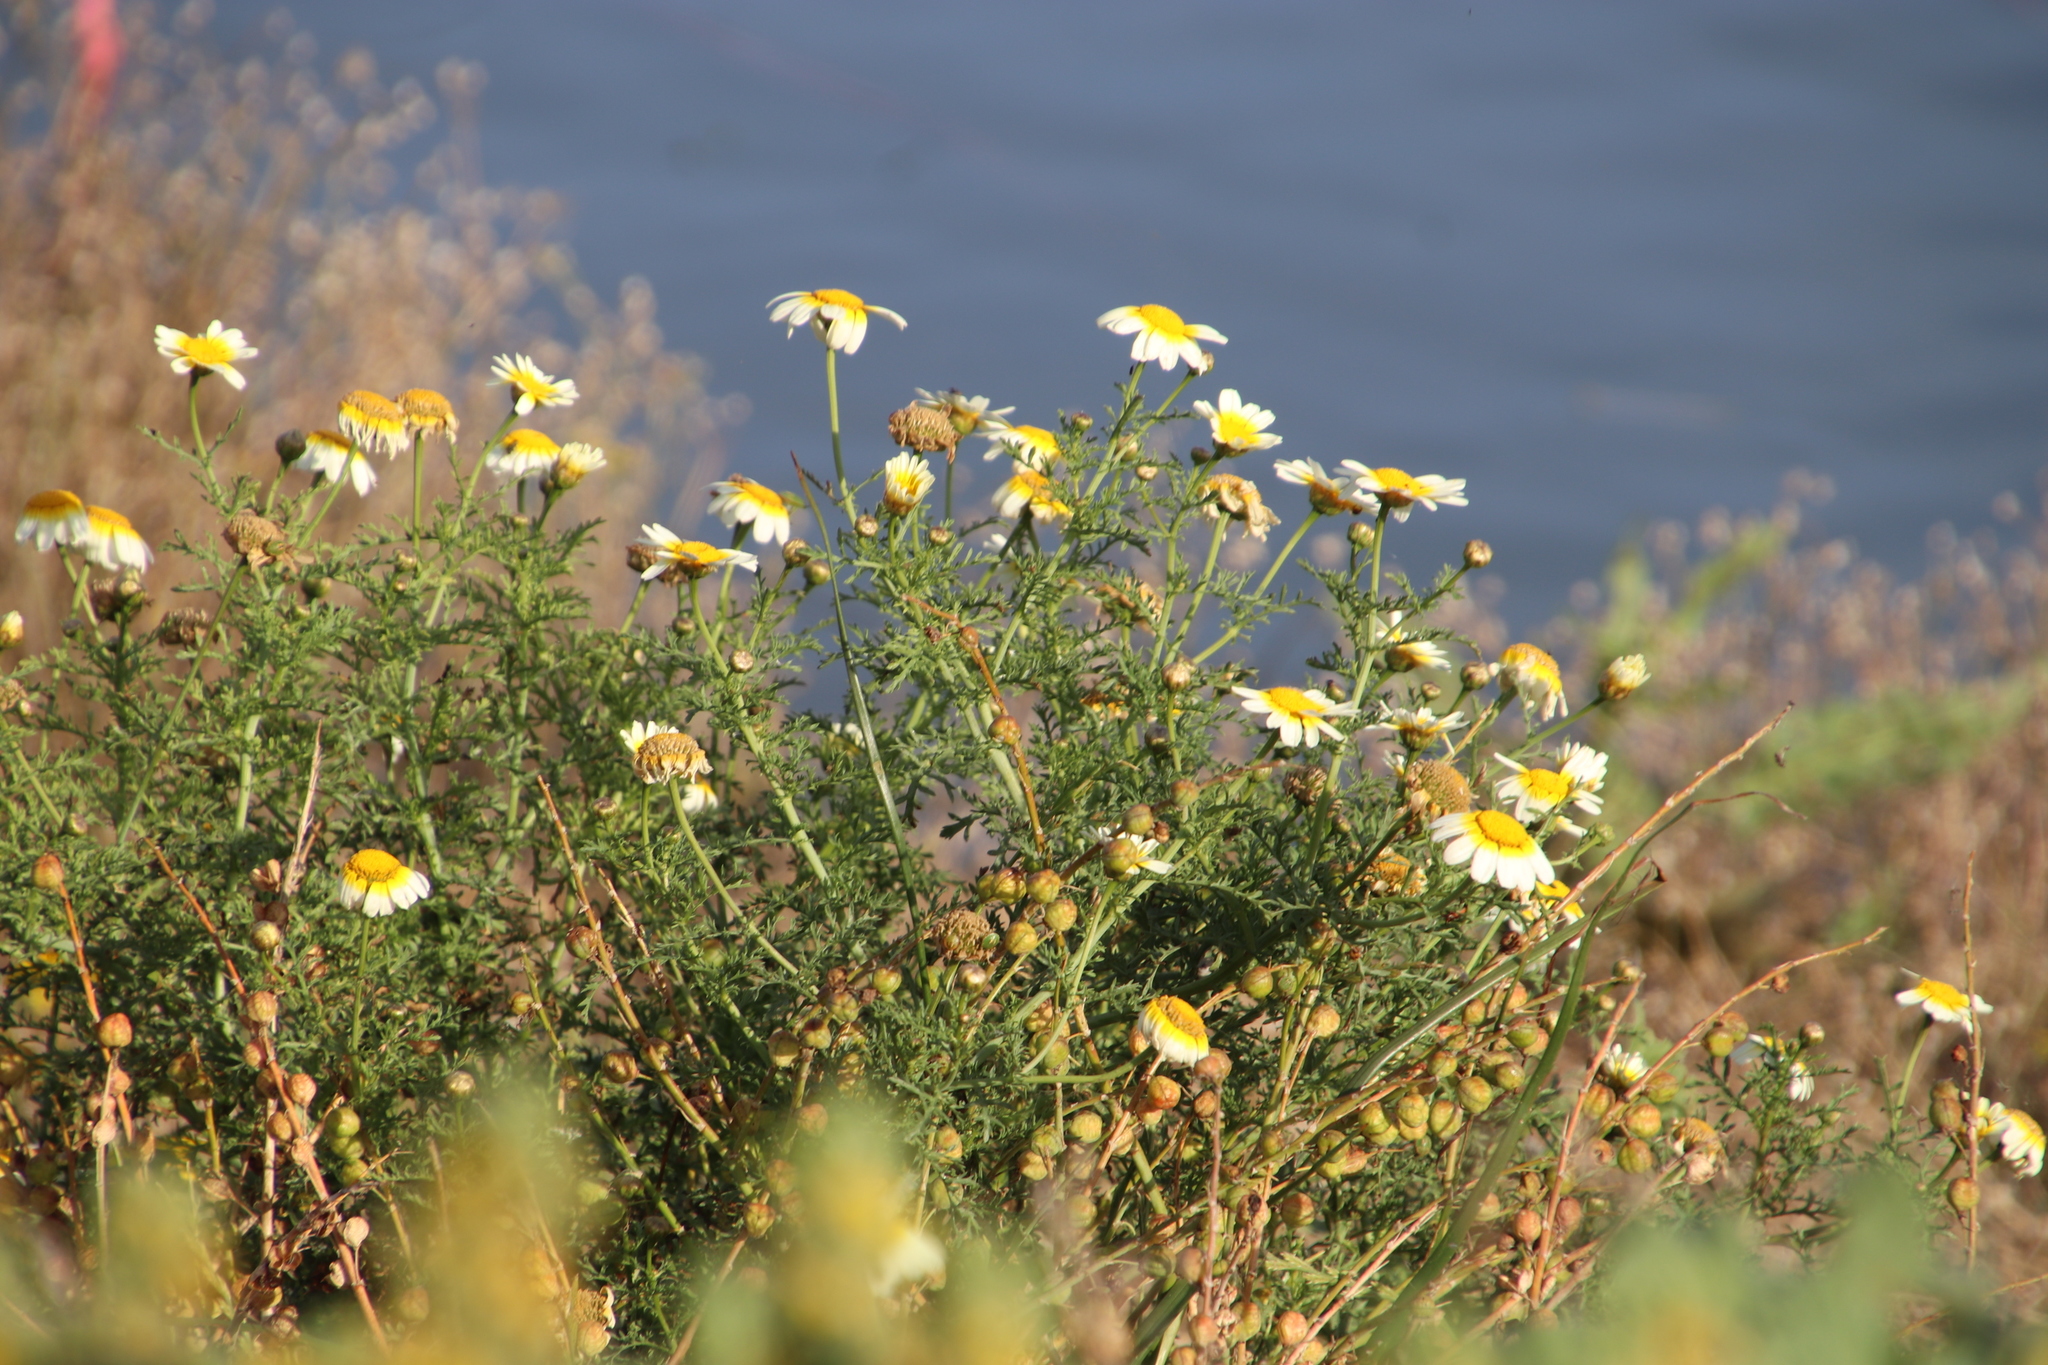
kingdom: Plantae
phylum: Tracheophyta
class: Magnoliopsida
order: Asterales
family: Asteraceae
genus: Glebionis
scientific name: Glebionis coronaria
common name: Crowndaisy
